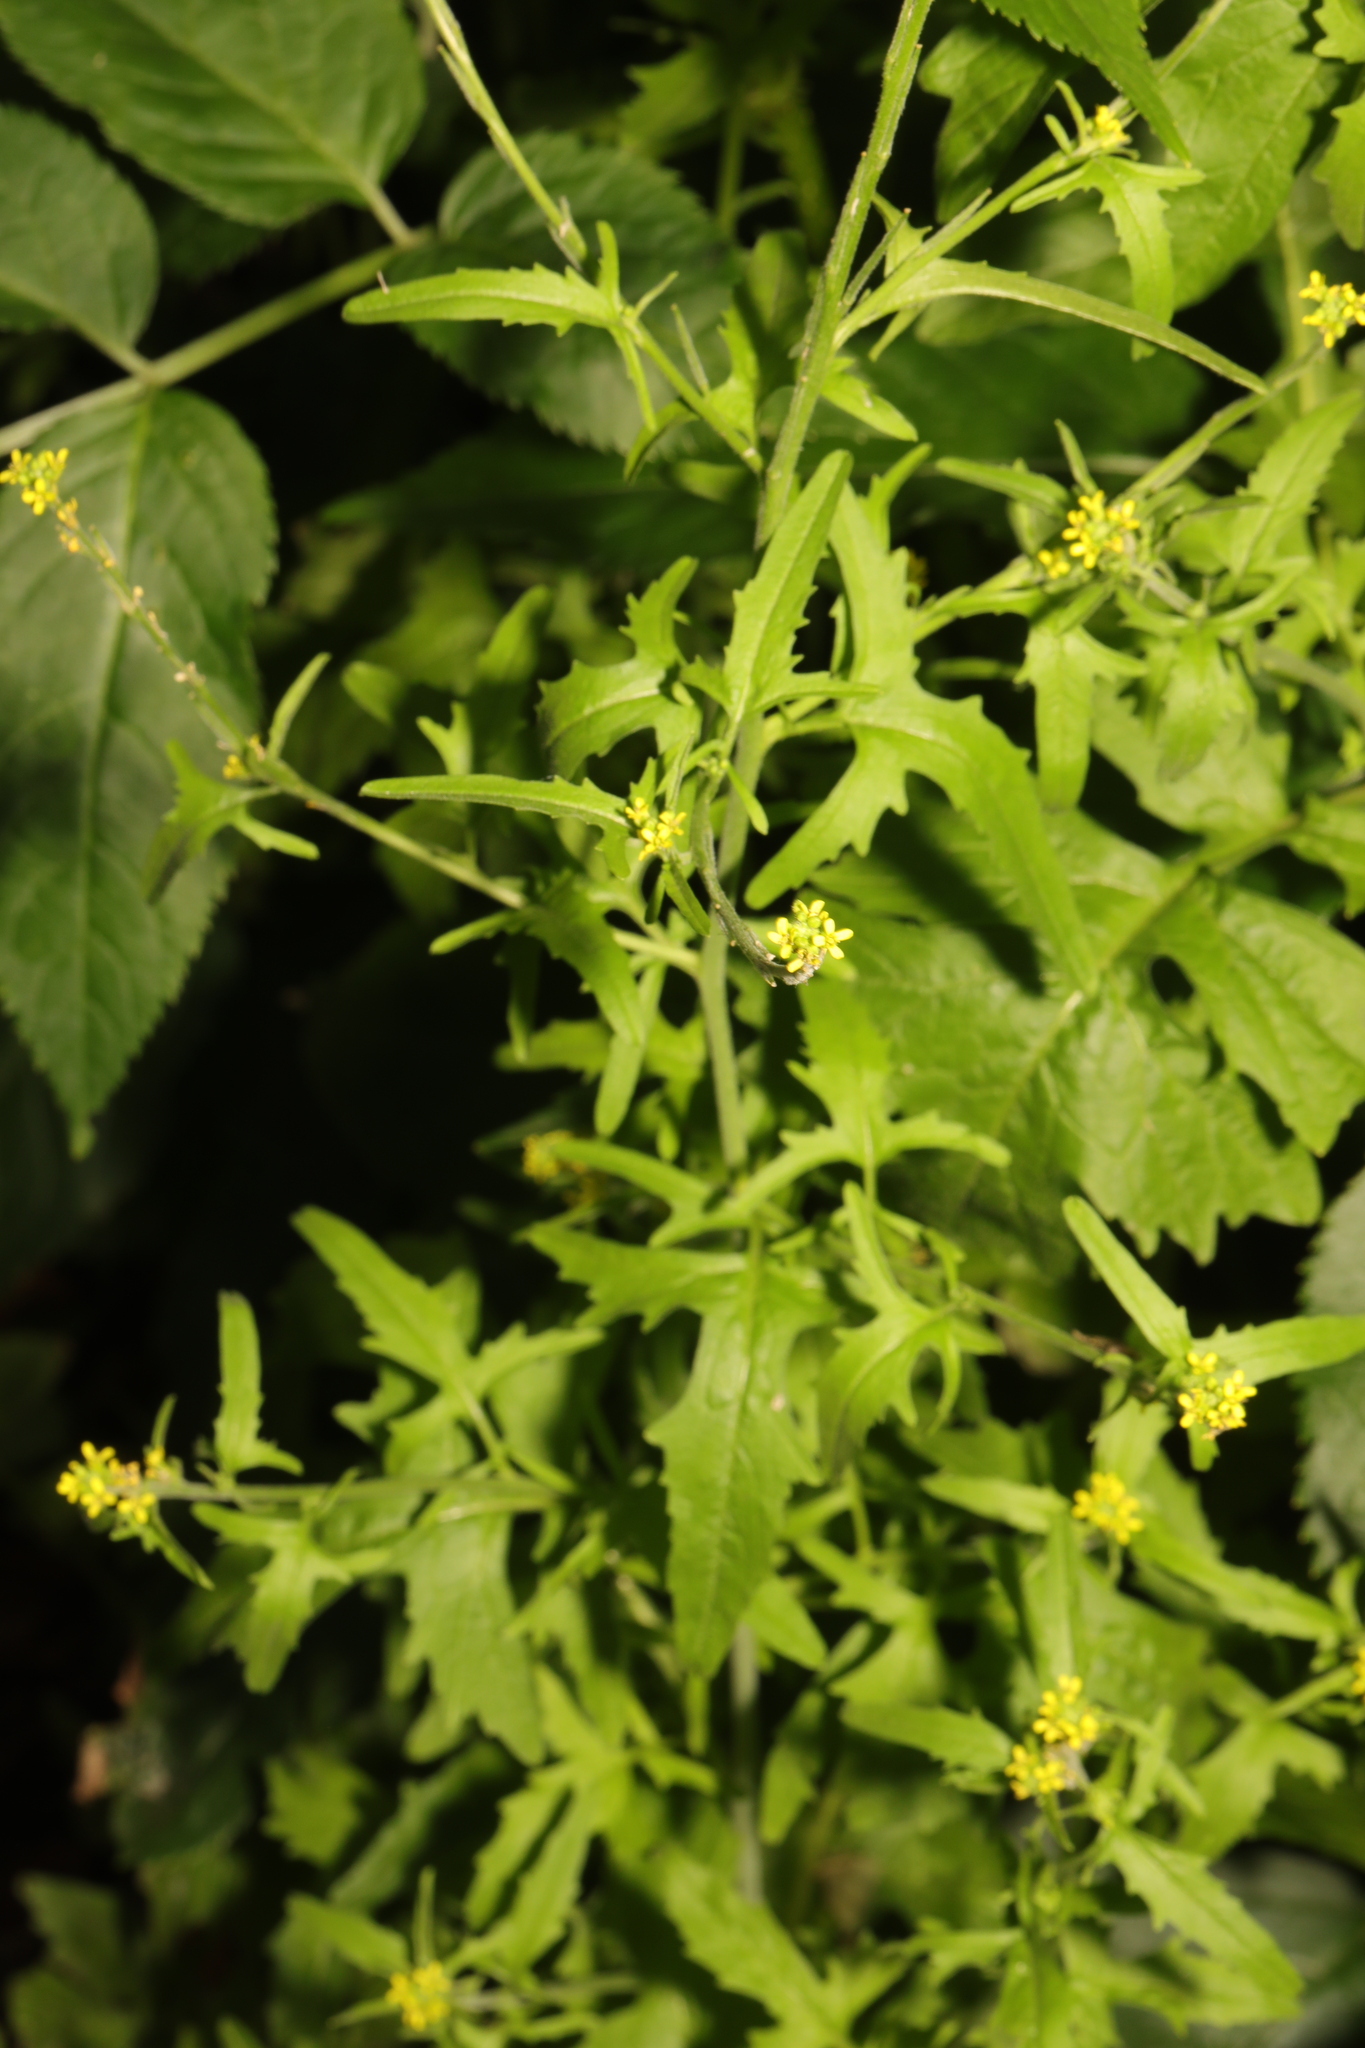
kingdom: Plantae
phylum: Tracheophyta
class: Magnoliopsida
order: Brassicales
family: Brassicaceae
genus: Sisymbrium
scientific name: Sisymbrium officinale
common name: Hedge mustard
